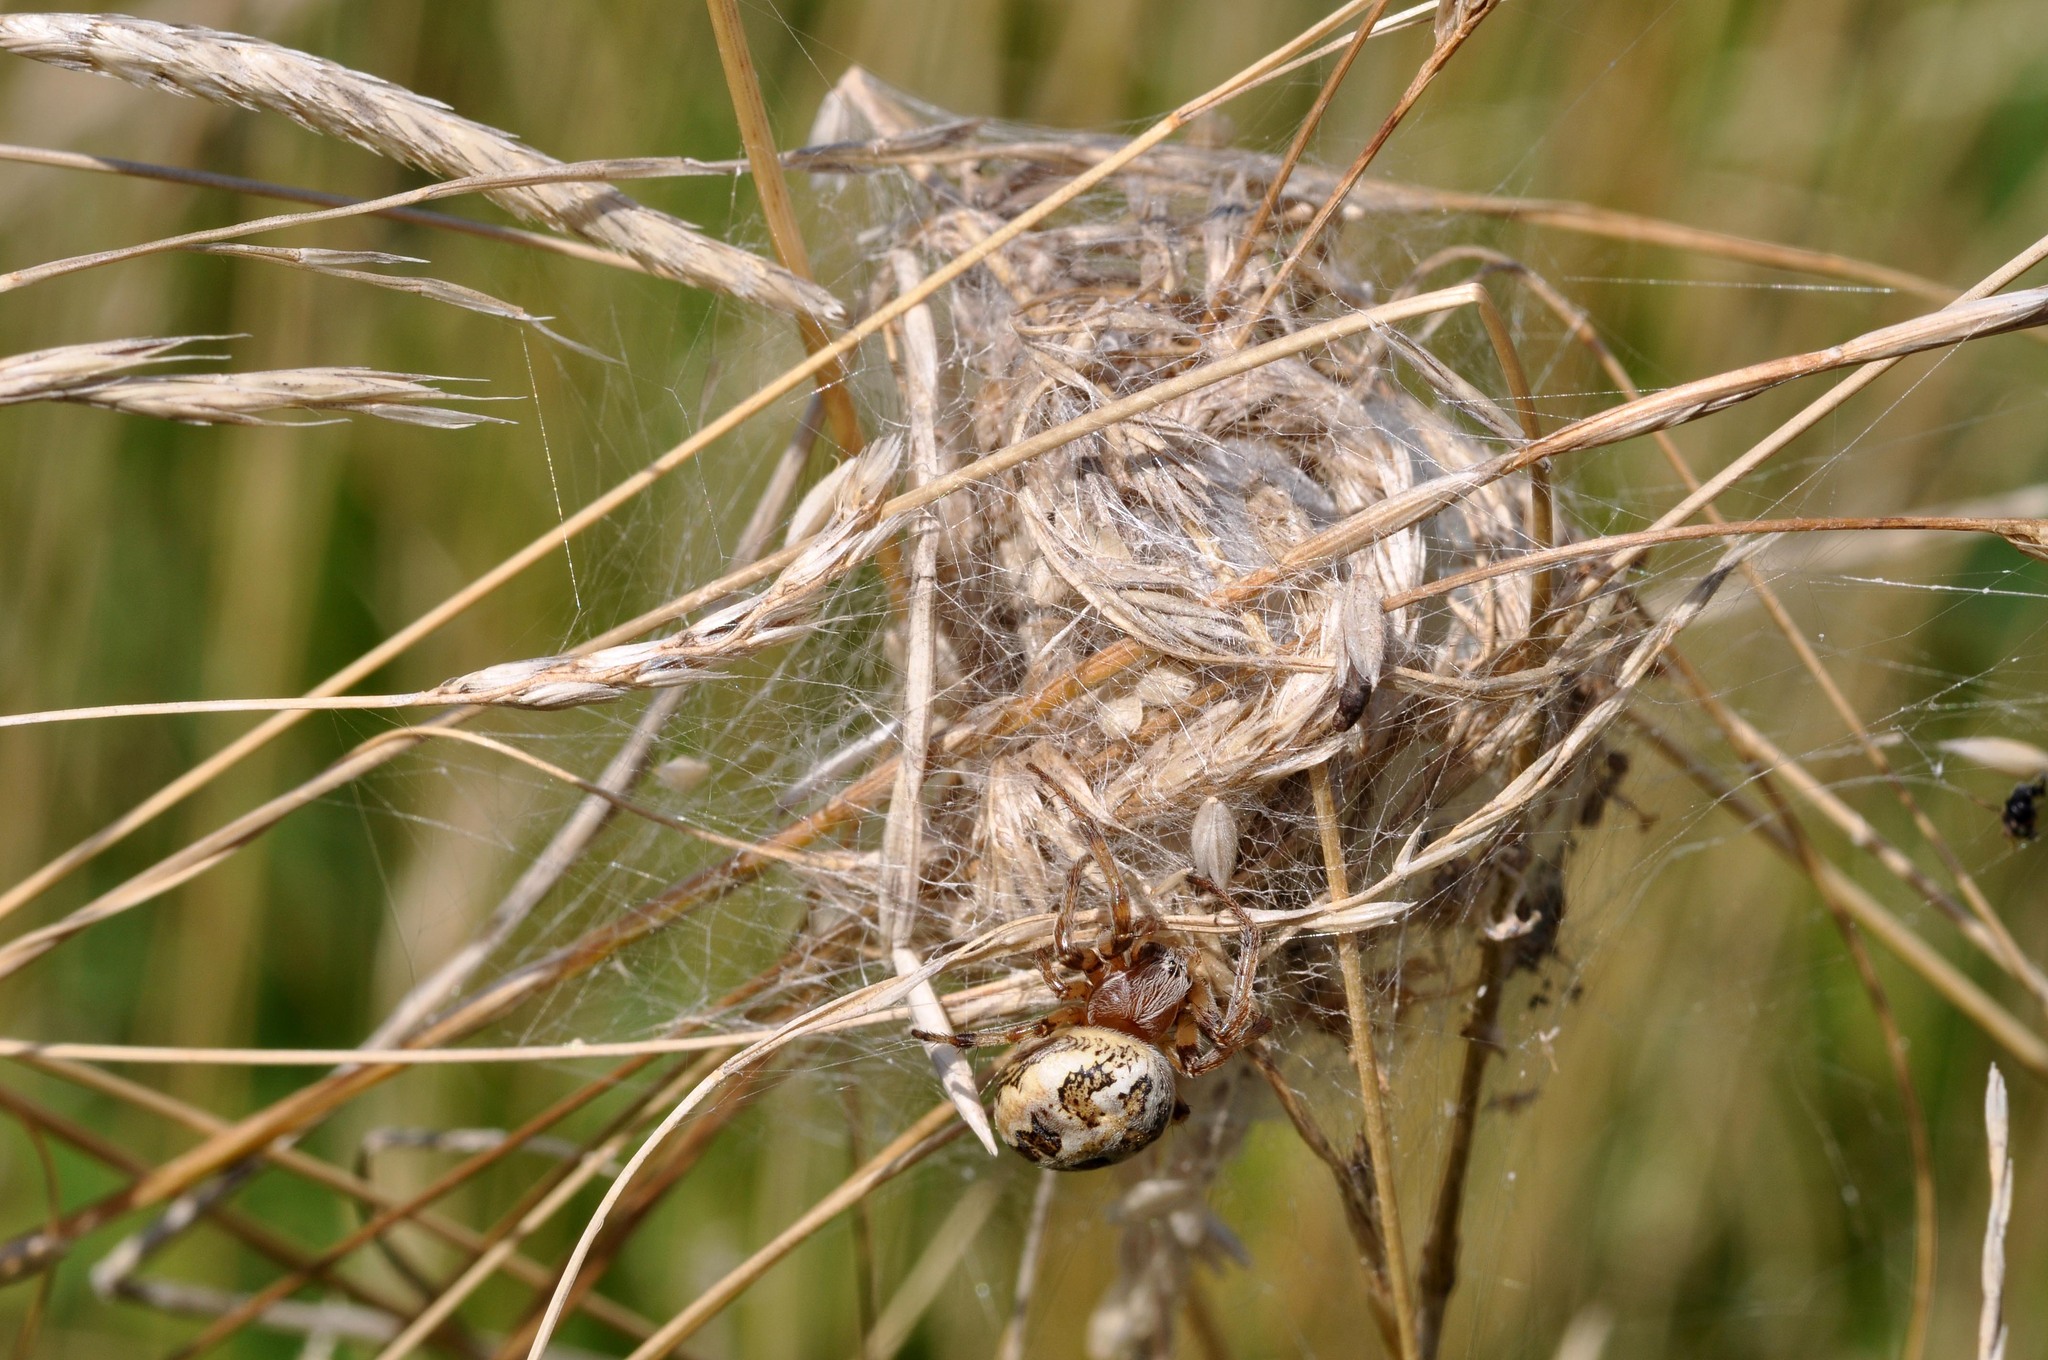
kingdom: Animalia
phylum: Arthropoda
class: Arachnida
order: Araneae
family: Araneidae
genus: Larinioides
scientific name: Larinioides cornutus
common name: Furrow orbweaver
